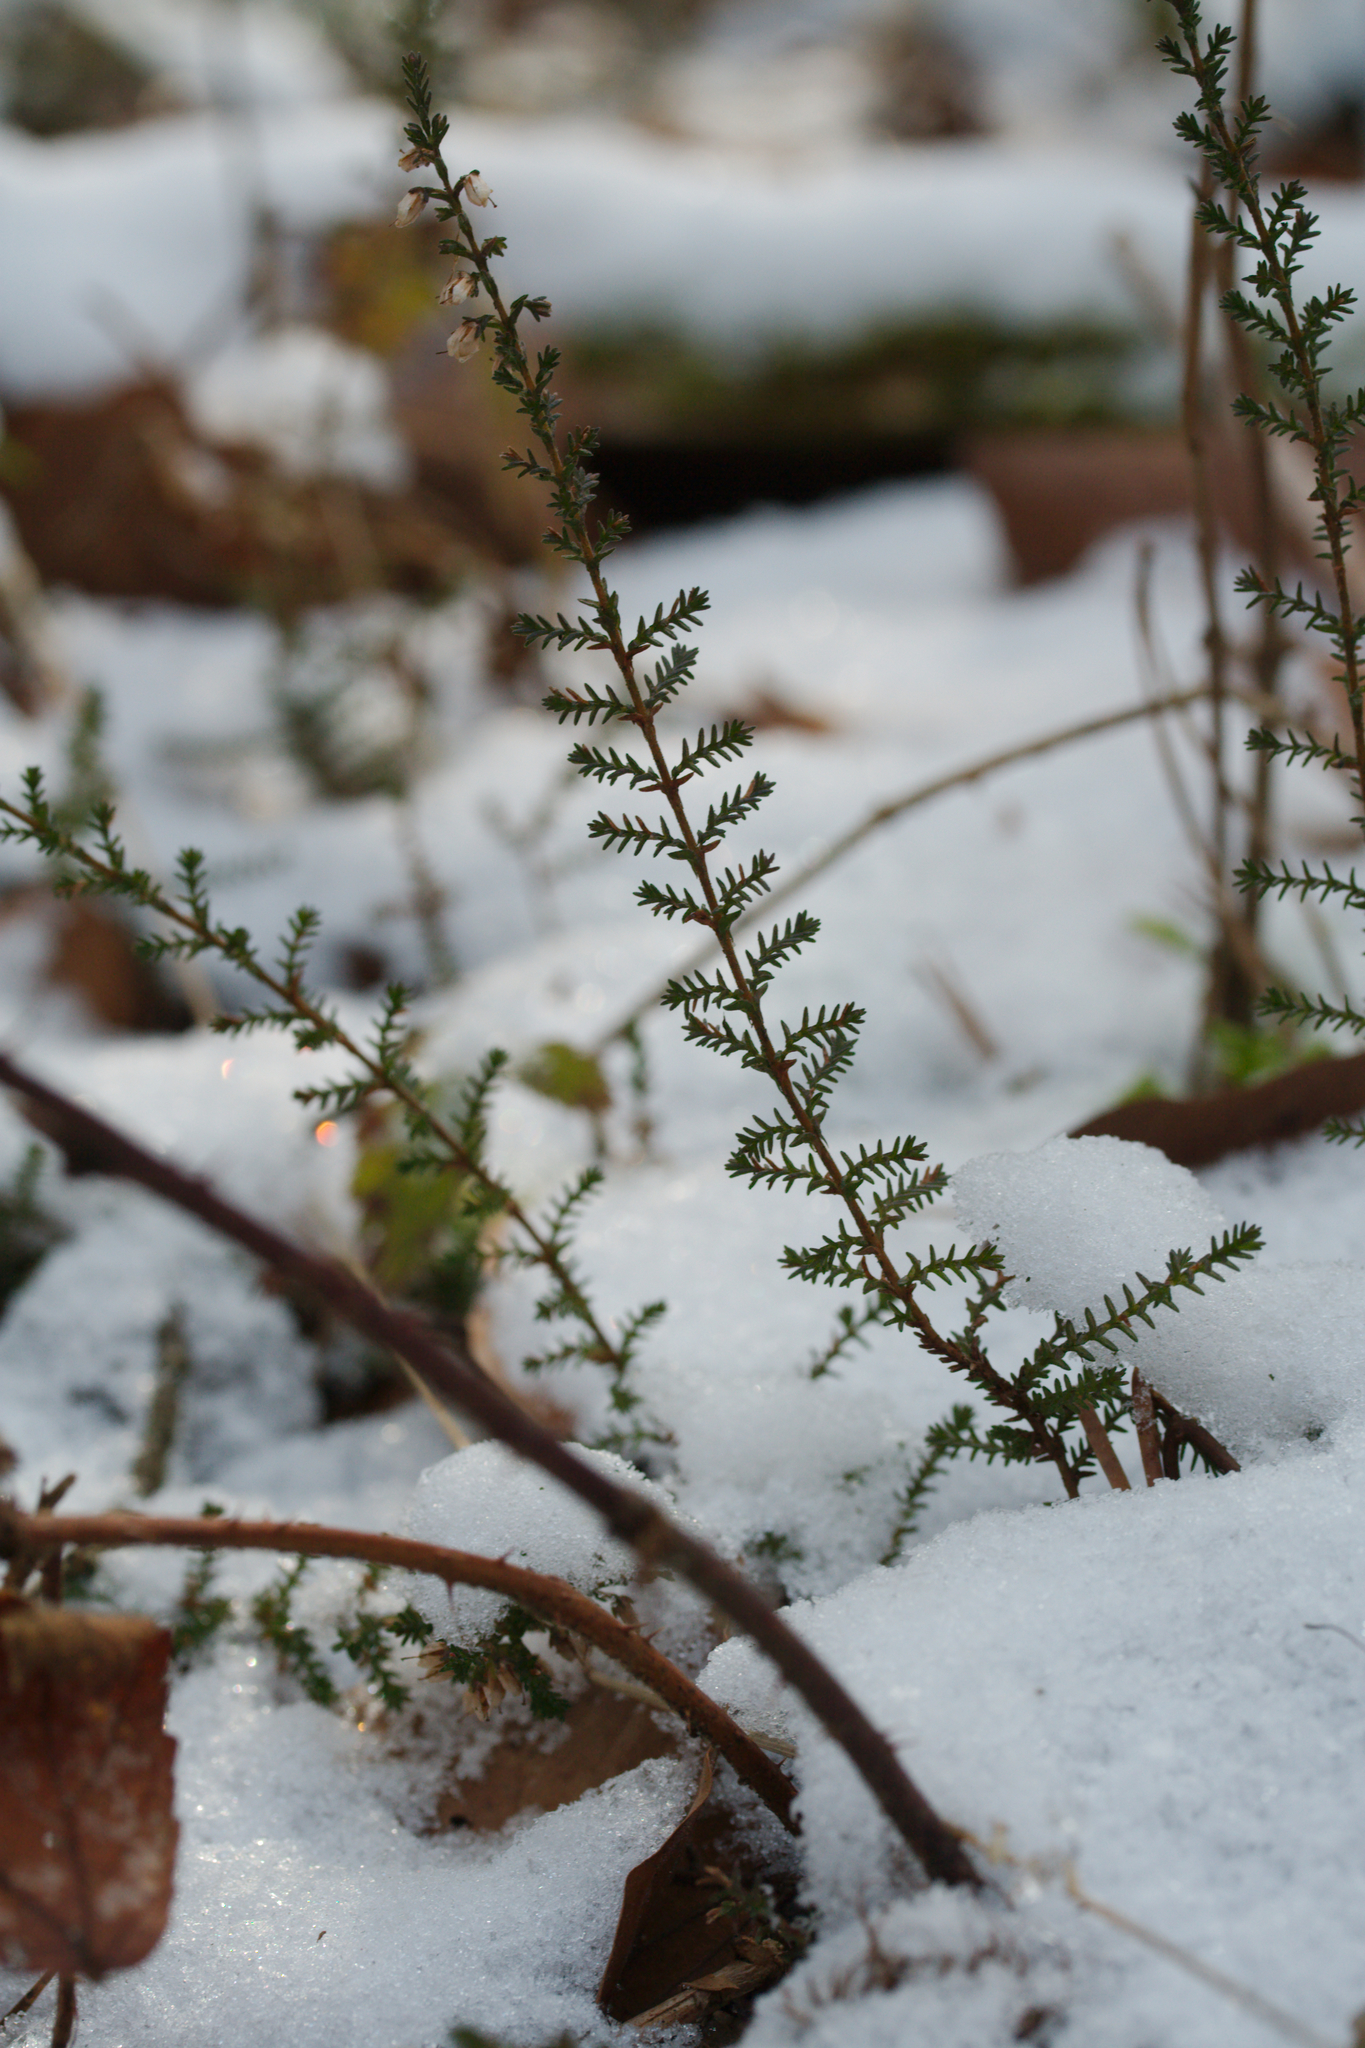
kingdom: Plantae
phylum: Tracheophyta
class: Magnoliopsida
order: Ericales
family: Ericaceae
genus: Calluna
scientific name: Calluna vulgaris
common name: Heather
